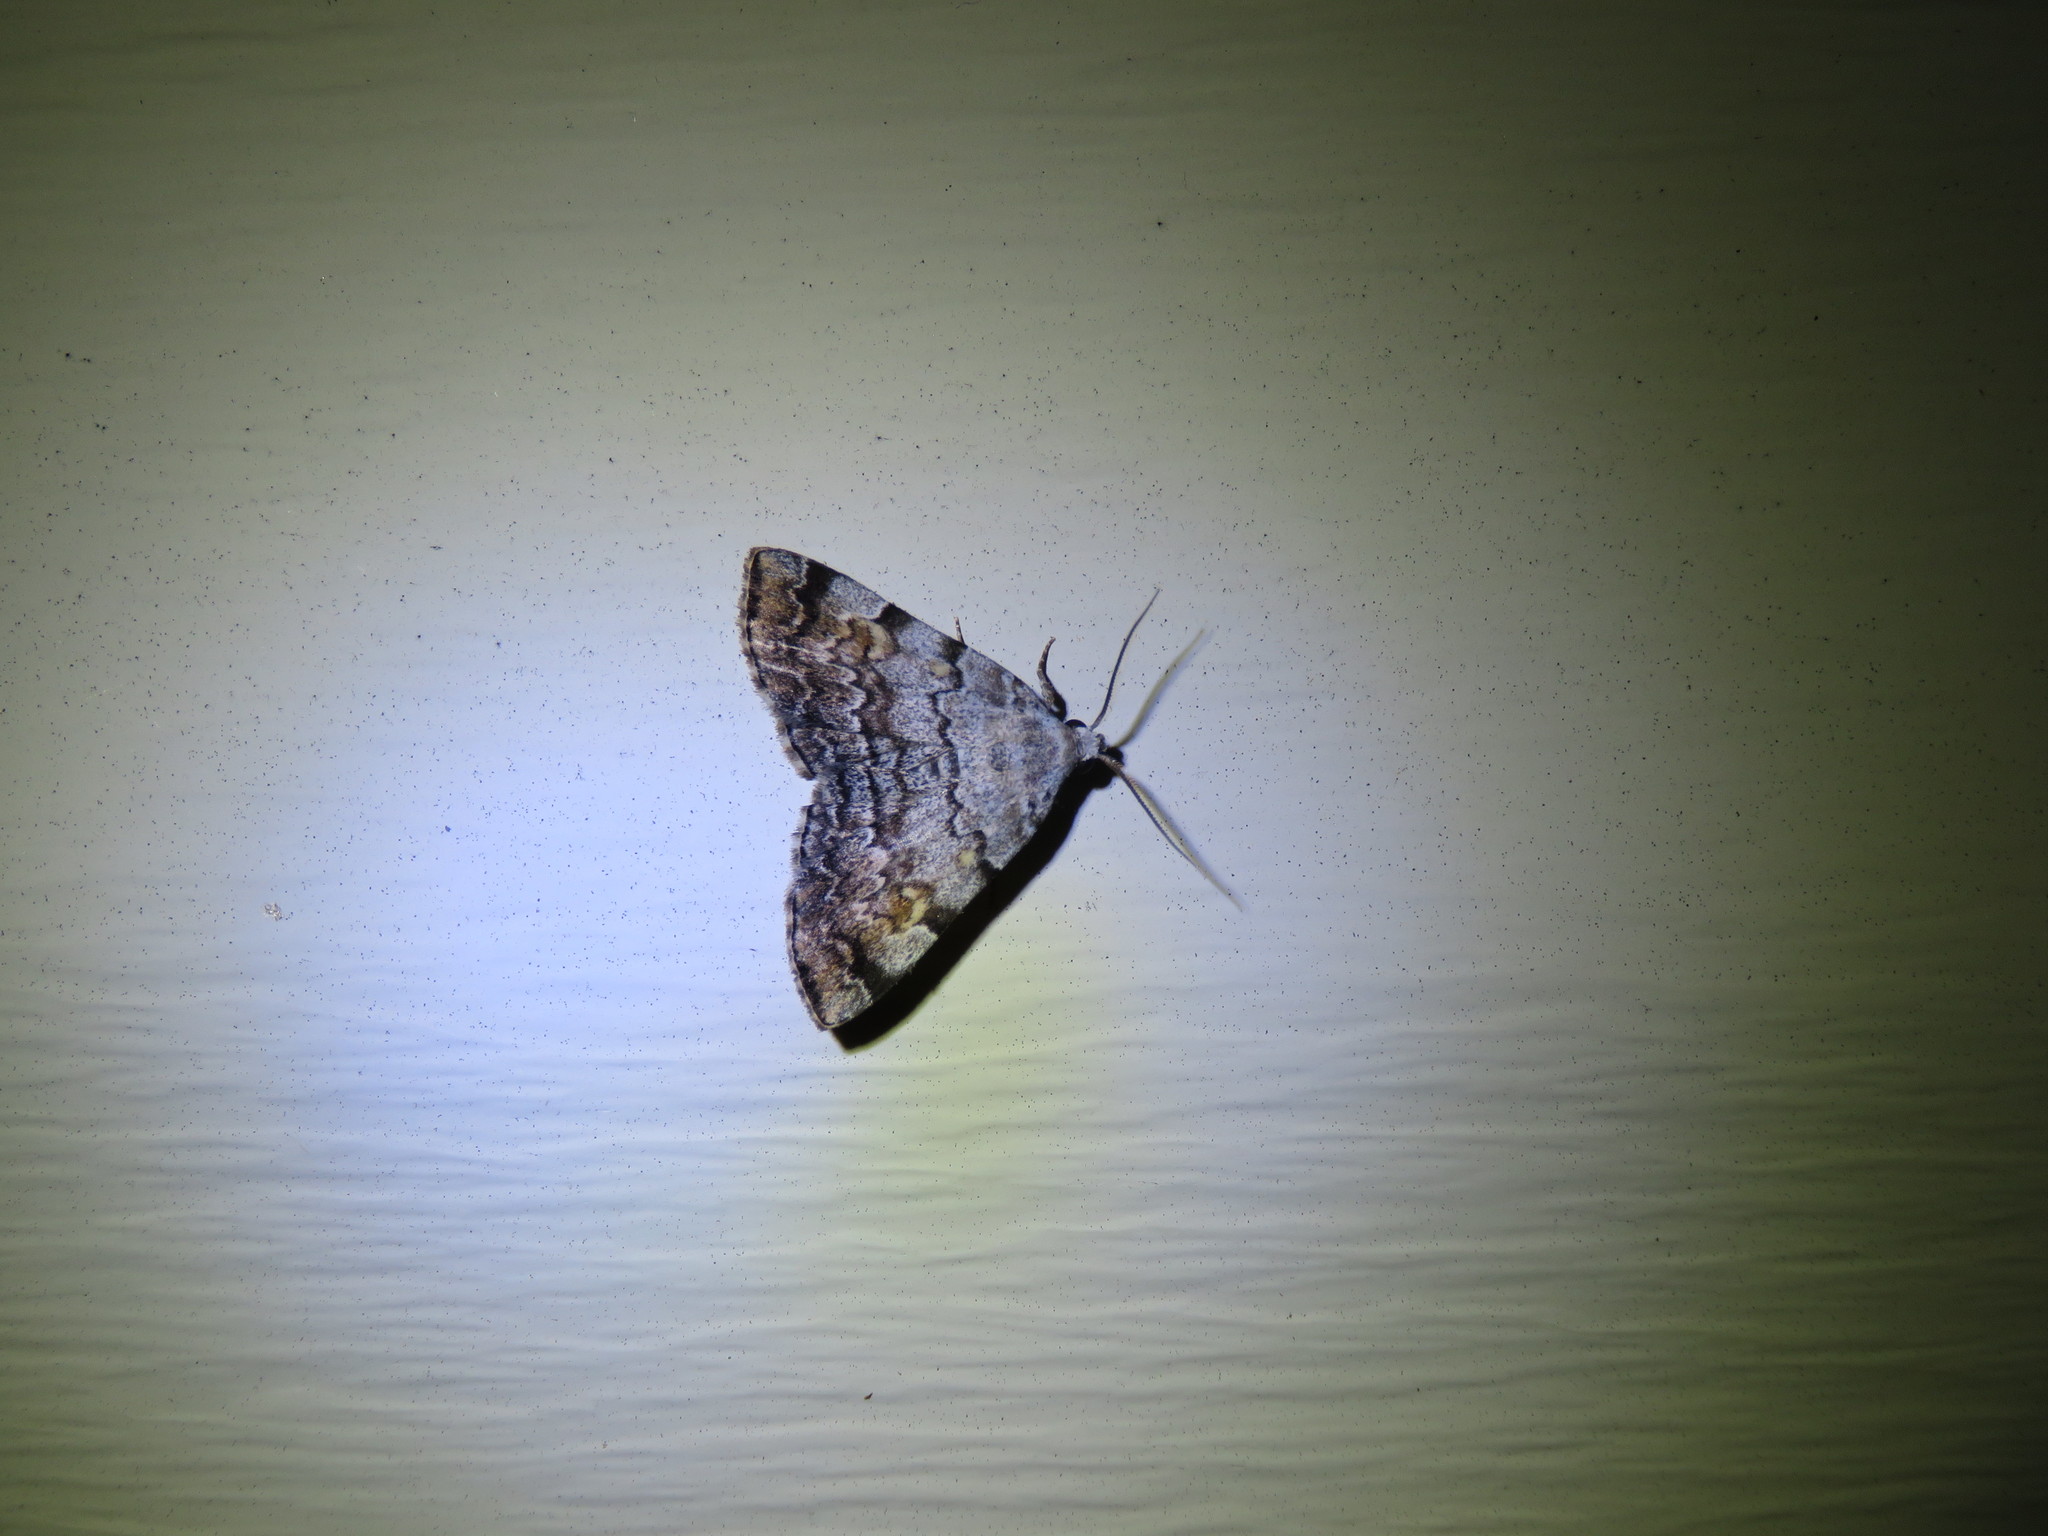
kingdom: Animalia
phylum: Arthropoda
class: Insecta
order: Lepidoptera
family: Erebidae
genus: Idia
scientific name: Idia americalis
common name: American idia moth
